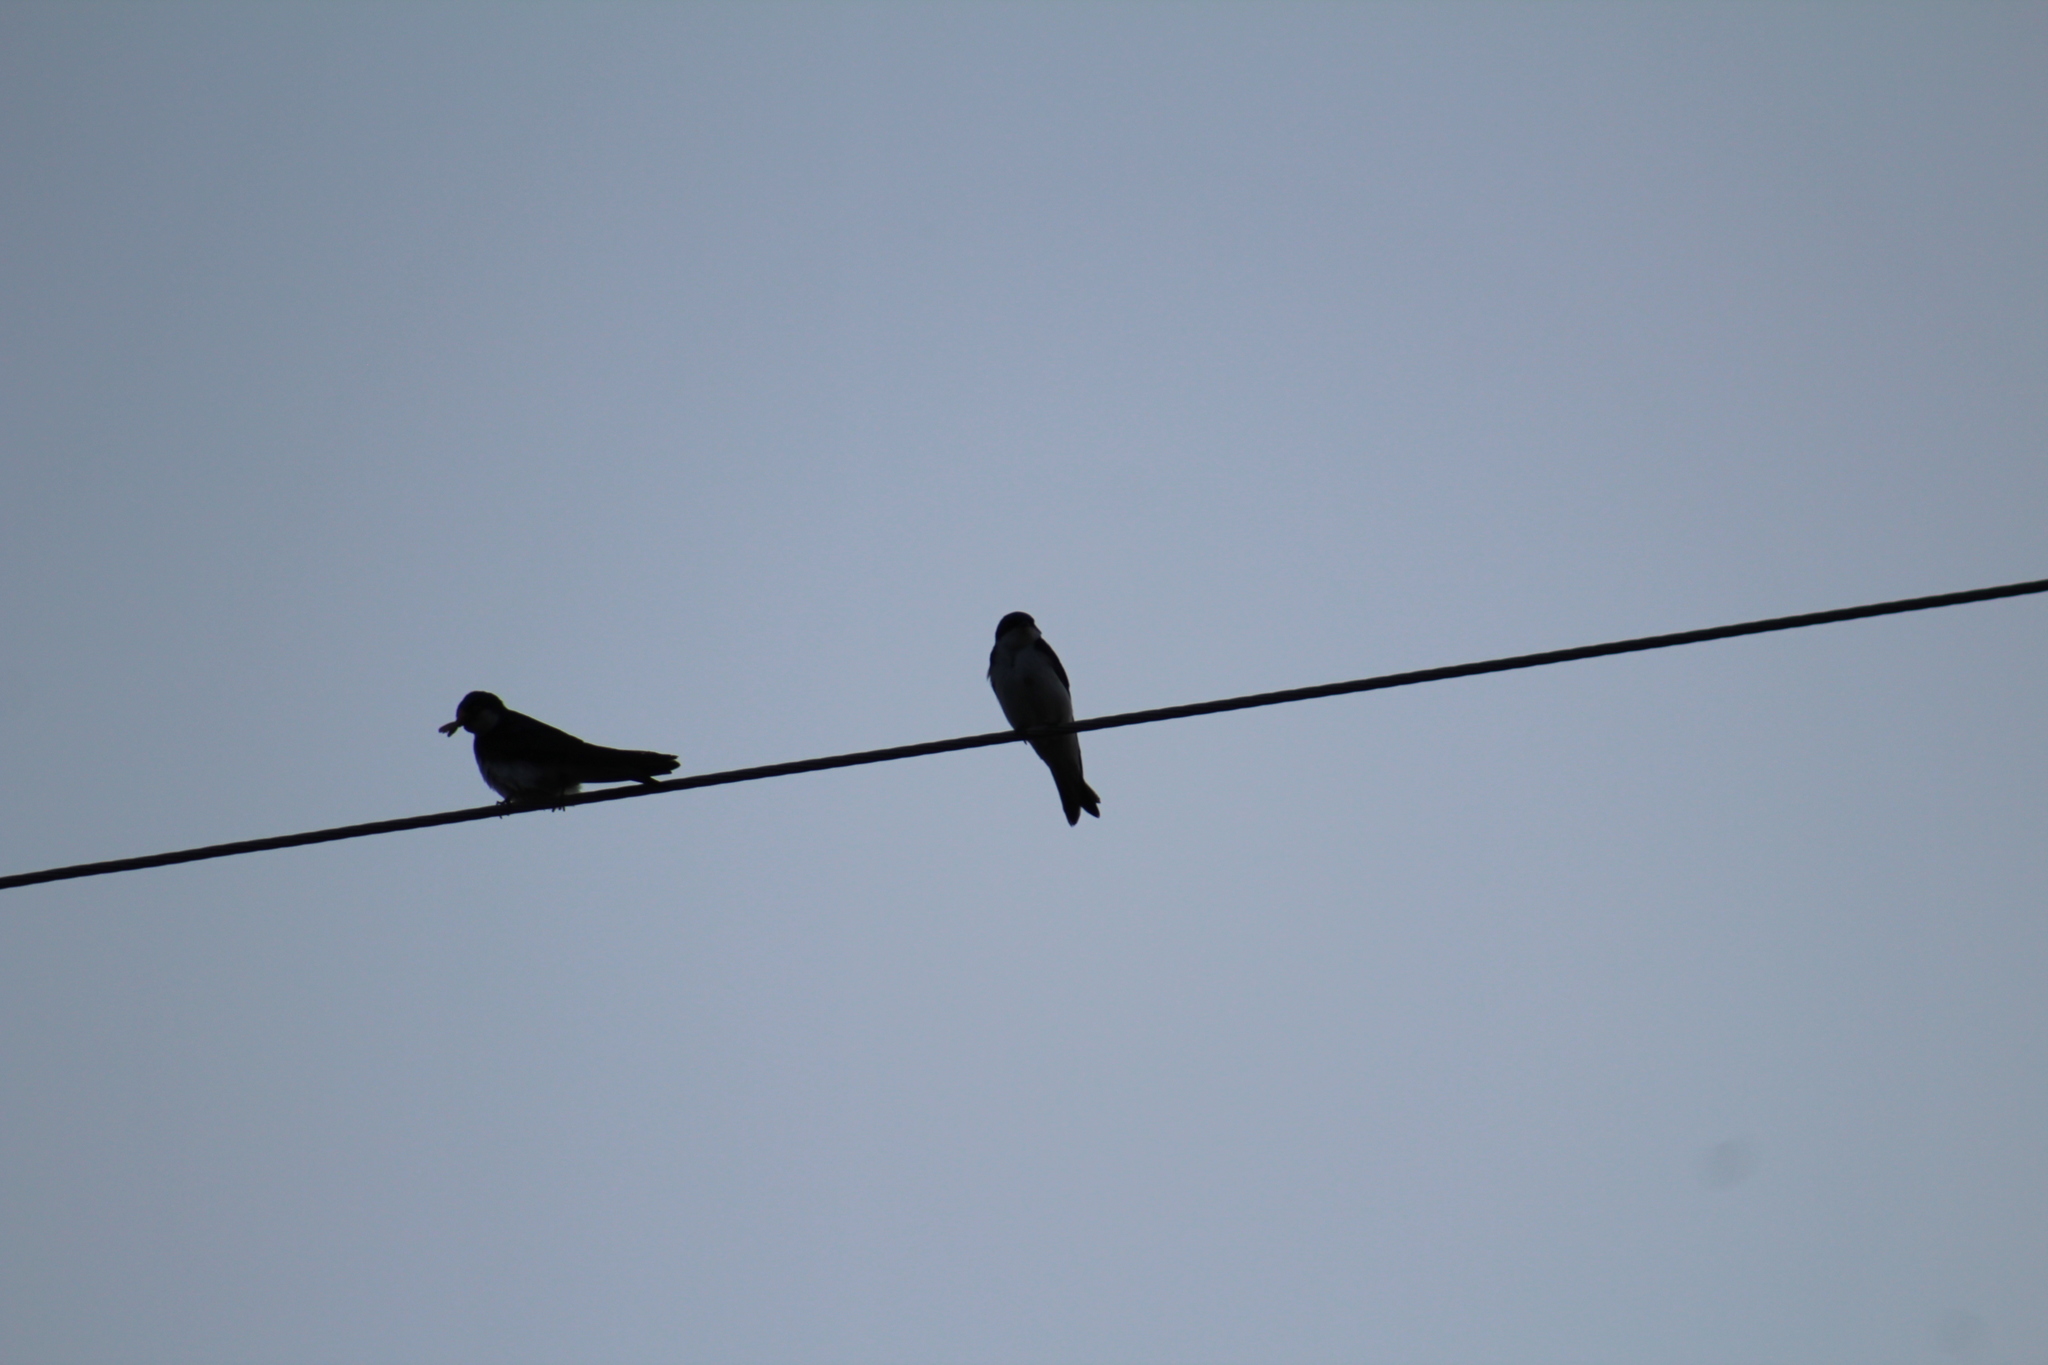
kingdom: Animalia
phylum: Chordata
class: Aves
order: Passeriformes
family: Hirundinidae
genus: Tachycineta
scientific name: Tachycineta bicolor
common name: Tree swallow
